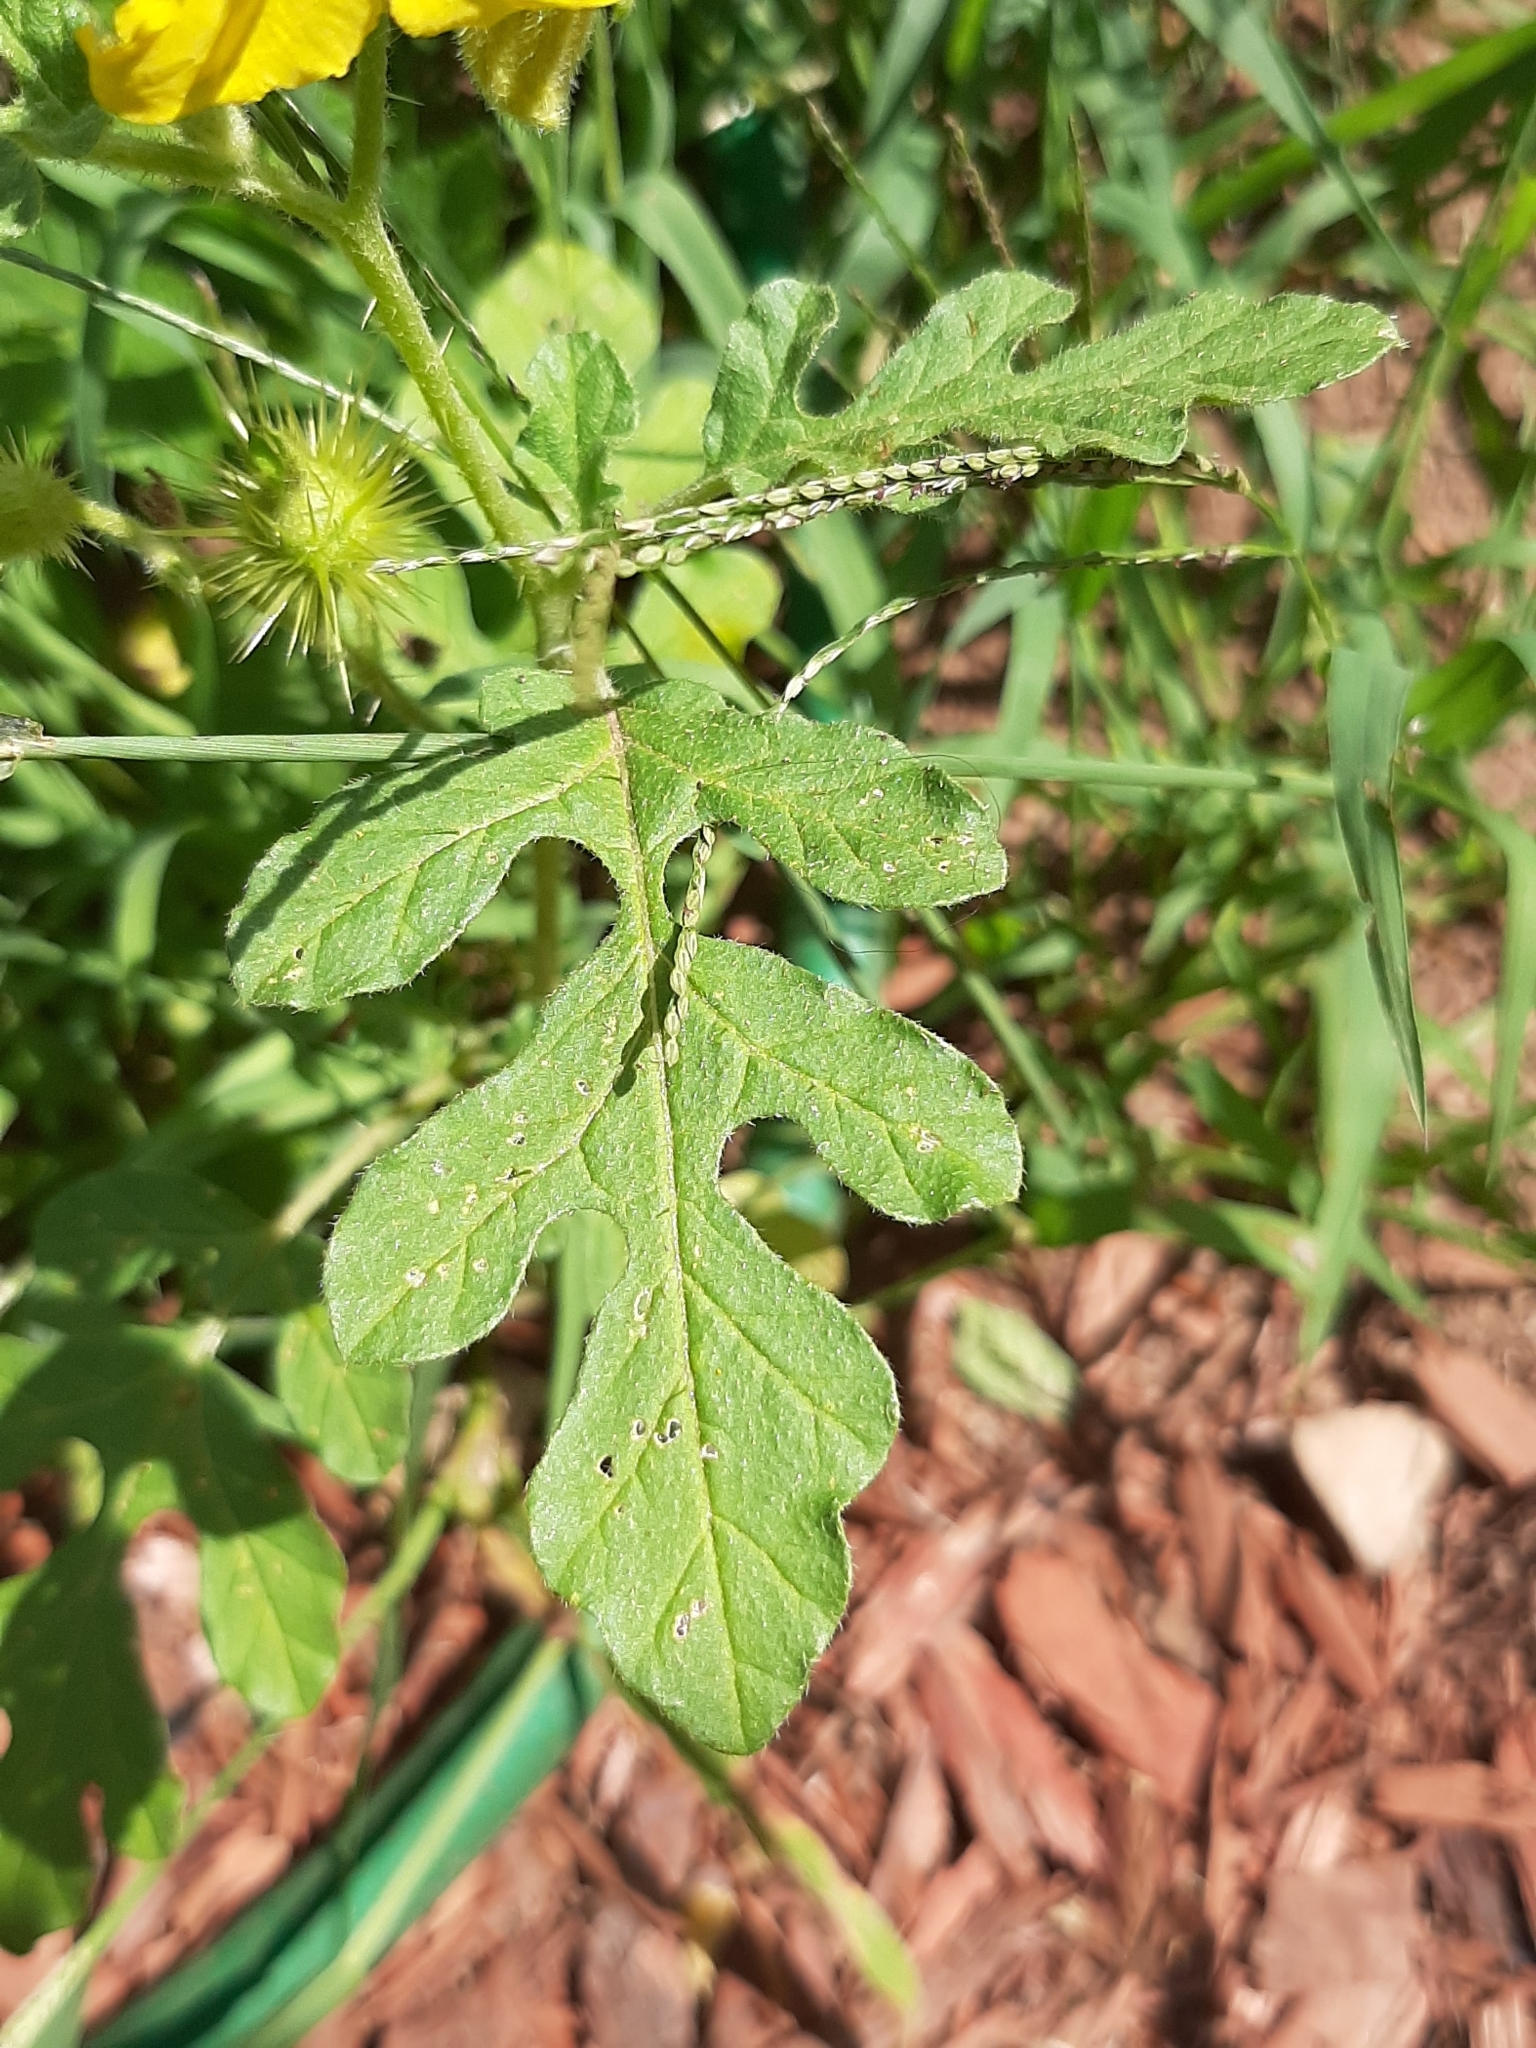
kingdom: Plantae
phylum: Tracheophyta
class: Magnoliopsida
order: Solanales
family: Solanaceae
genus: Solanum
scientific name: Solanum angustifolium
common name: Buffalobur nightshade
